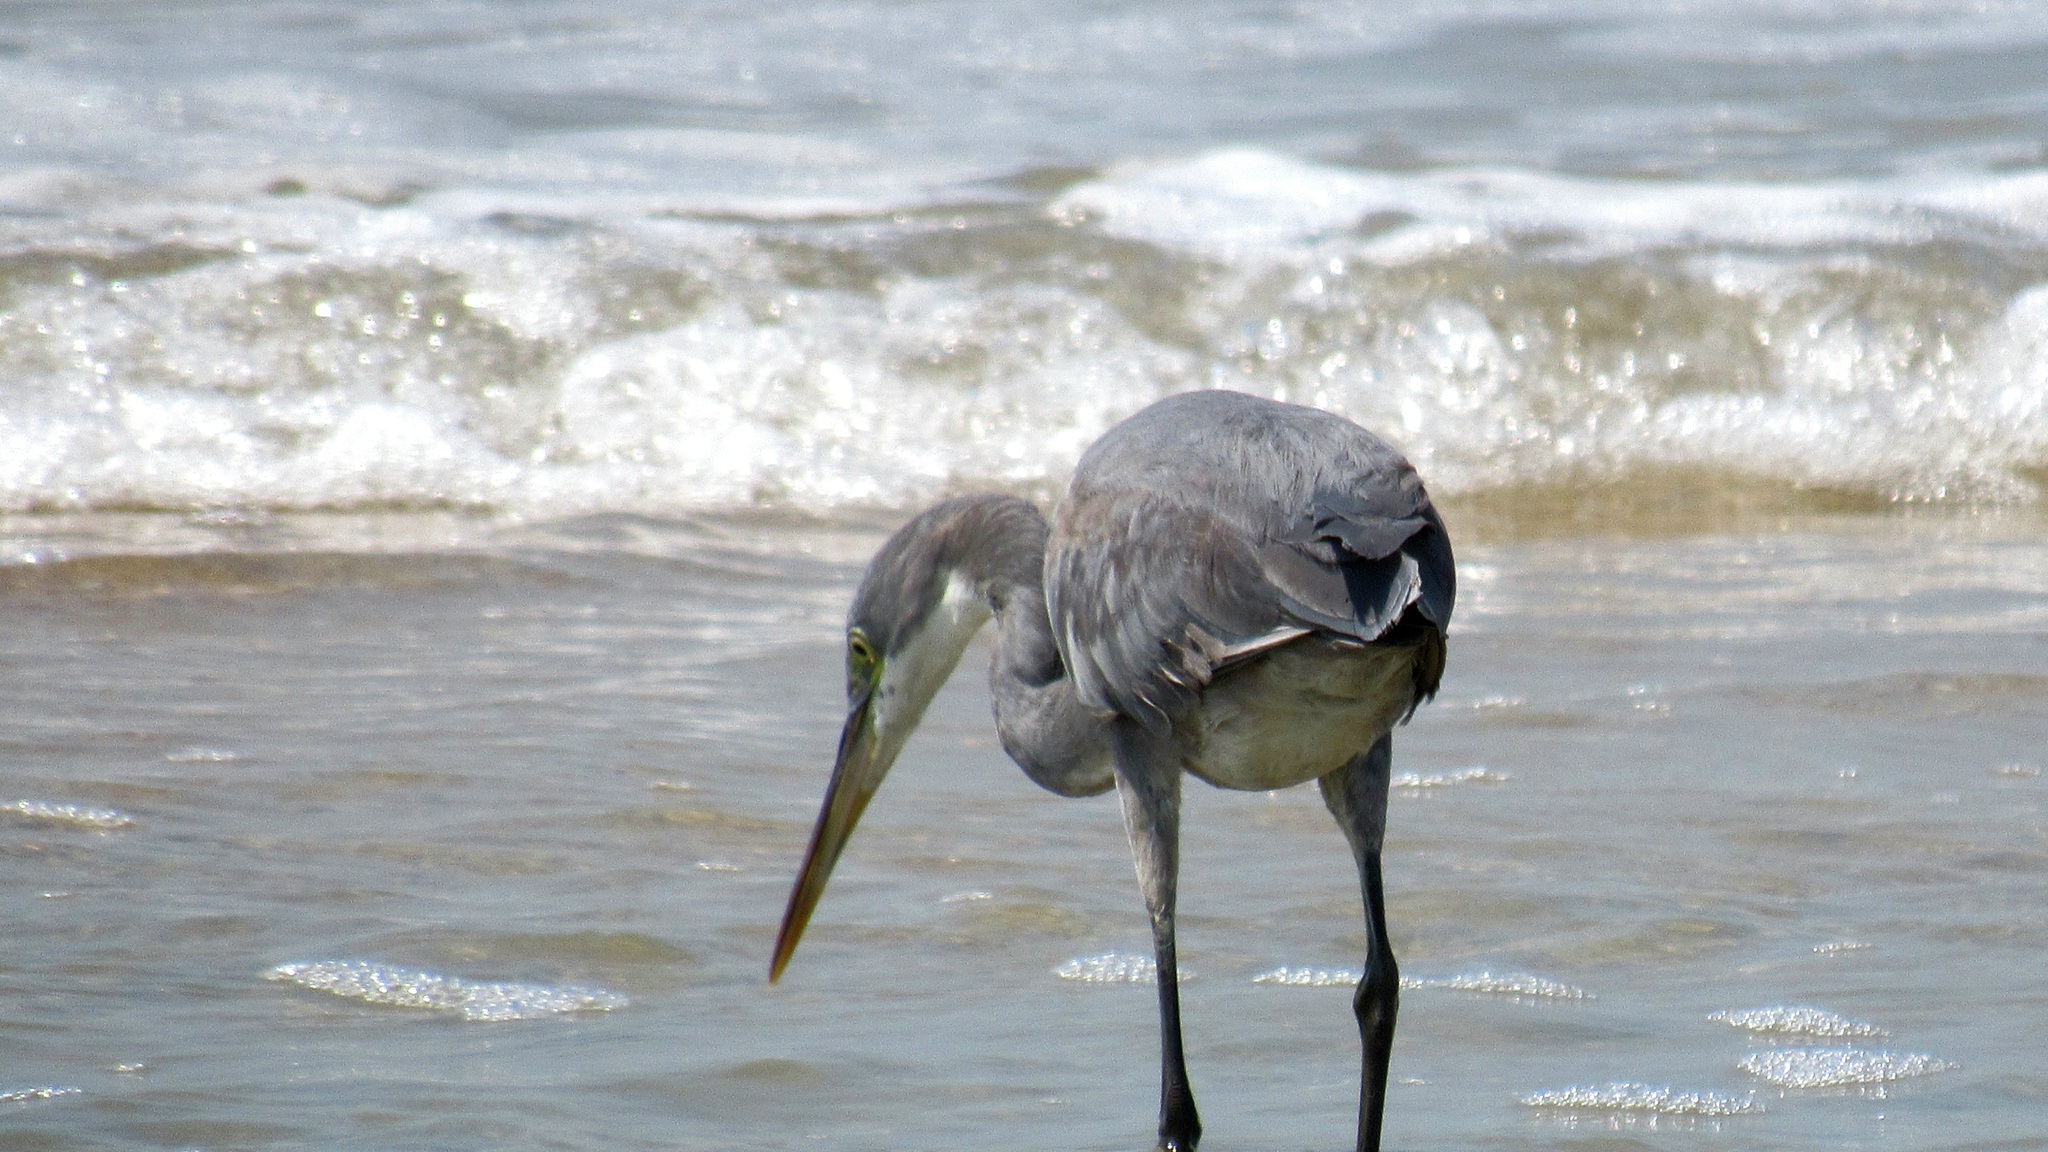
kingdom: Animalia
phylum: Chordata
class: Aves
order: Pelecaniformes
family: Ardeidae
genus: Egretta
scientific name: Egretta gularis
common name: Western reef-heron
